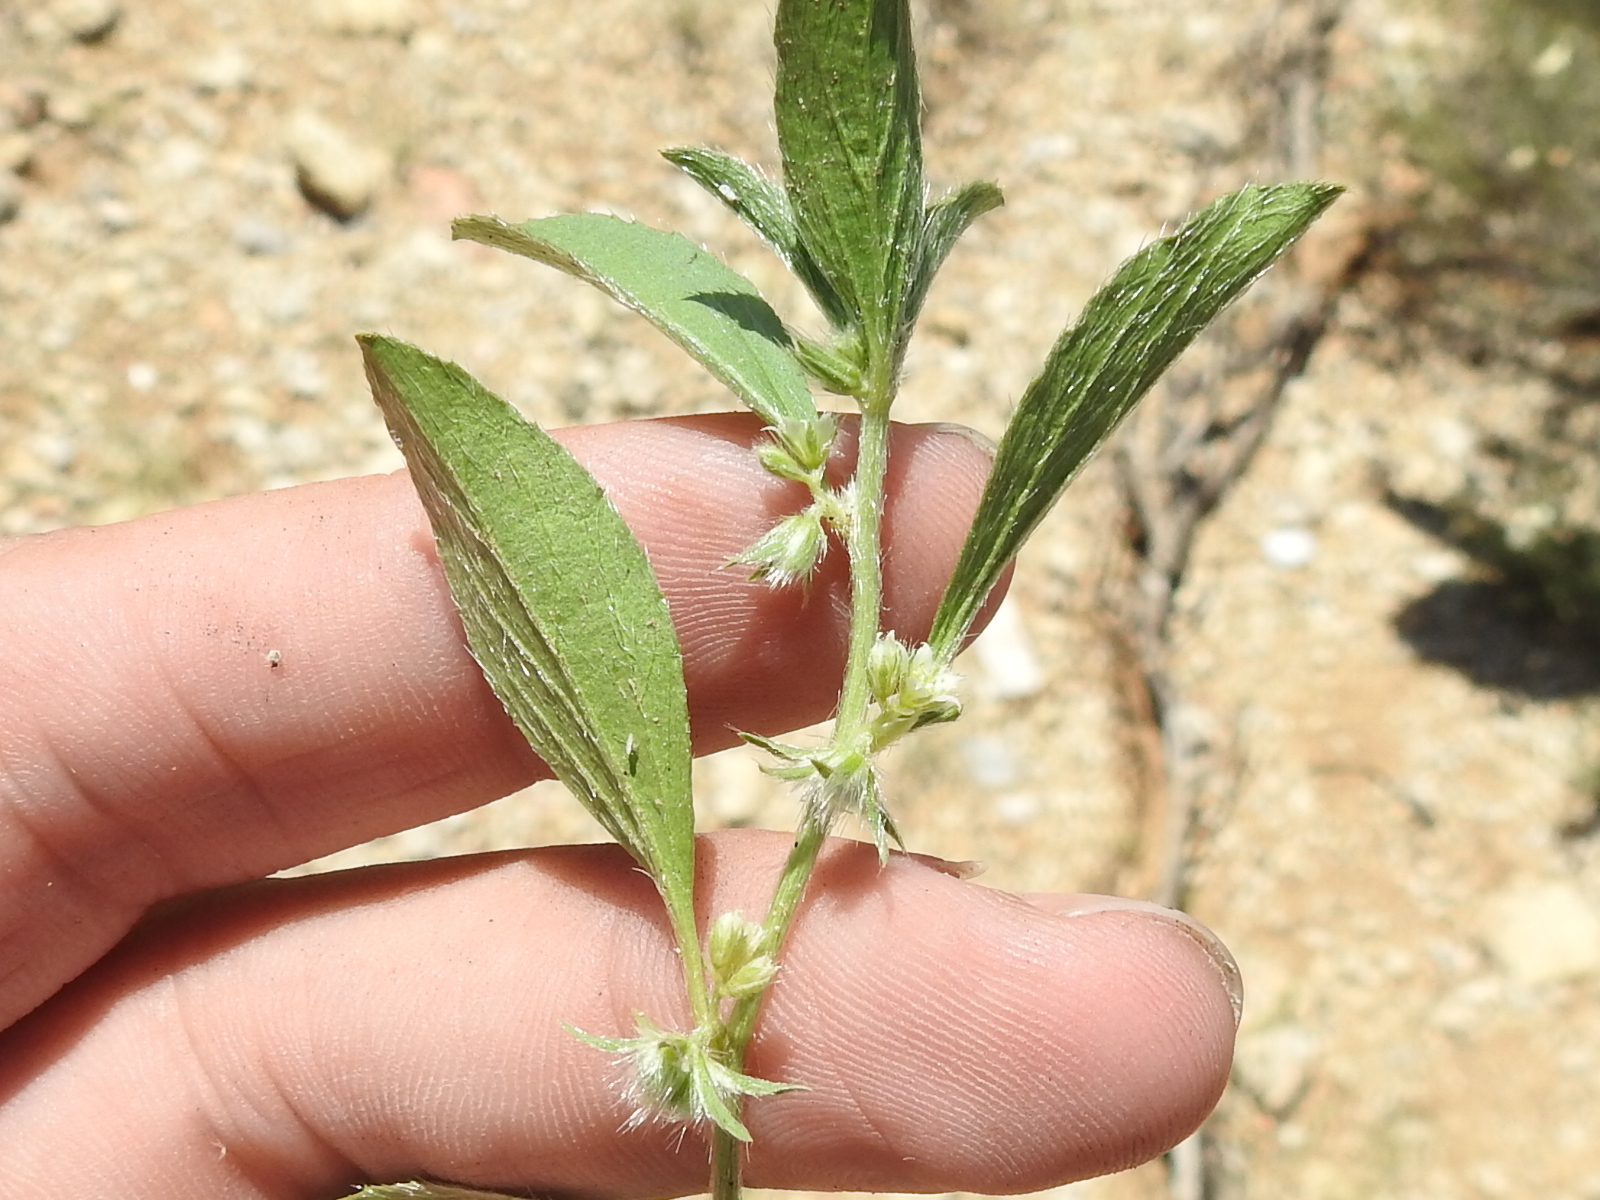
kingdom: Plantae
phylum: Tracheophyta
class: Magnoliopsida
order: Malpighiales
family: Euphorbiaceae
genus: Ditaxis
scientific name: Ditaxis serrata
